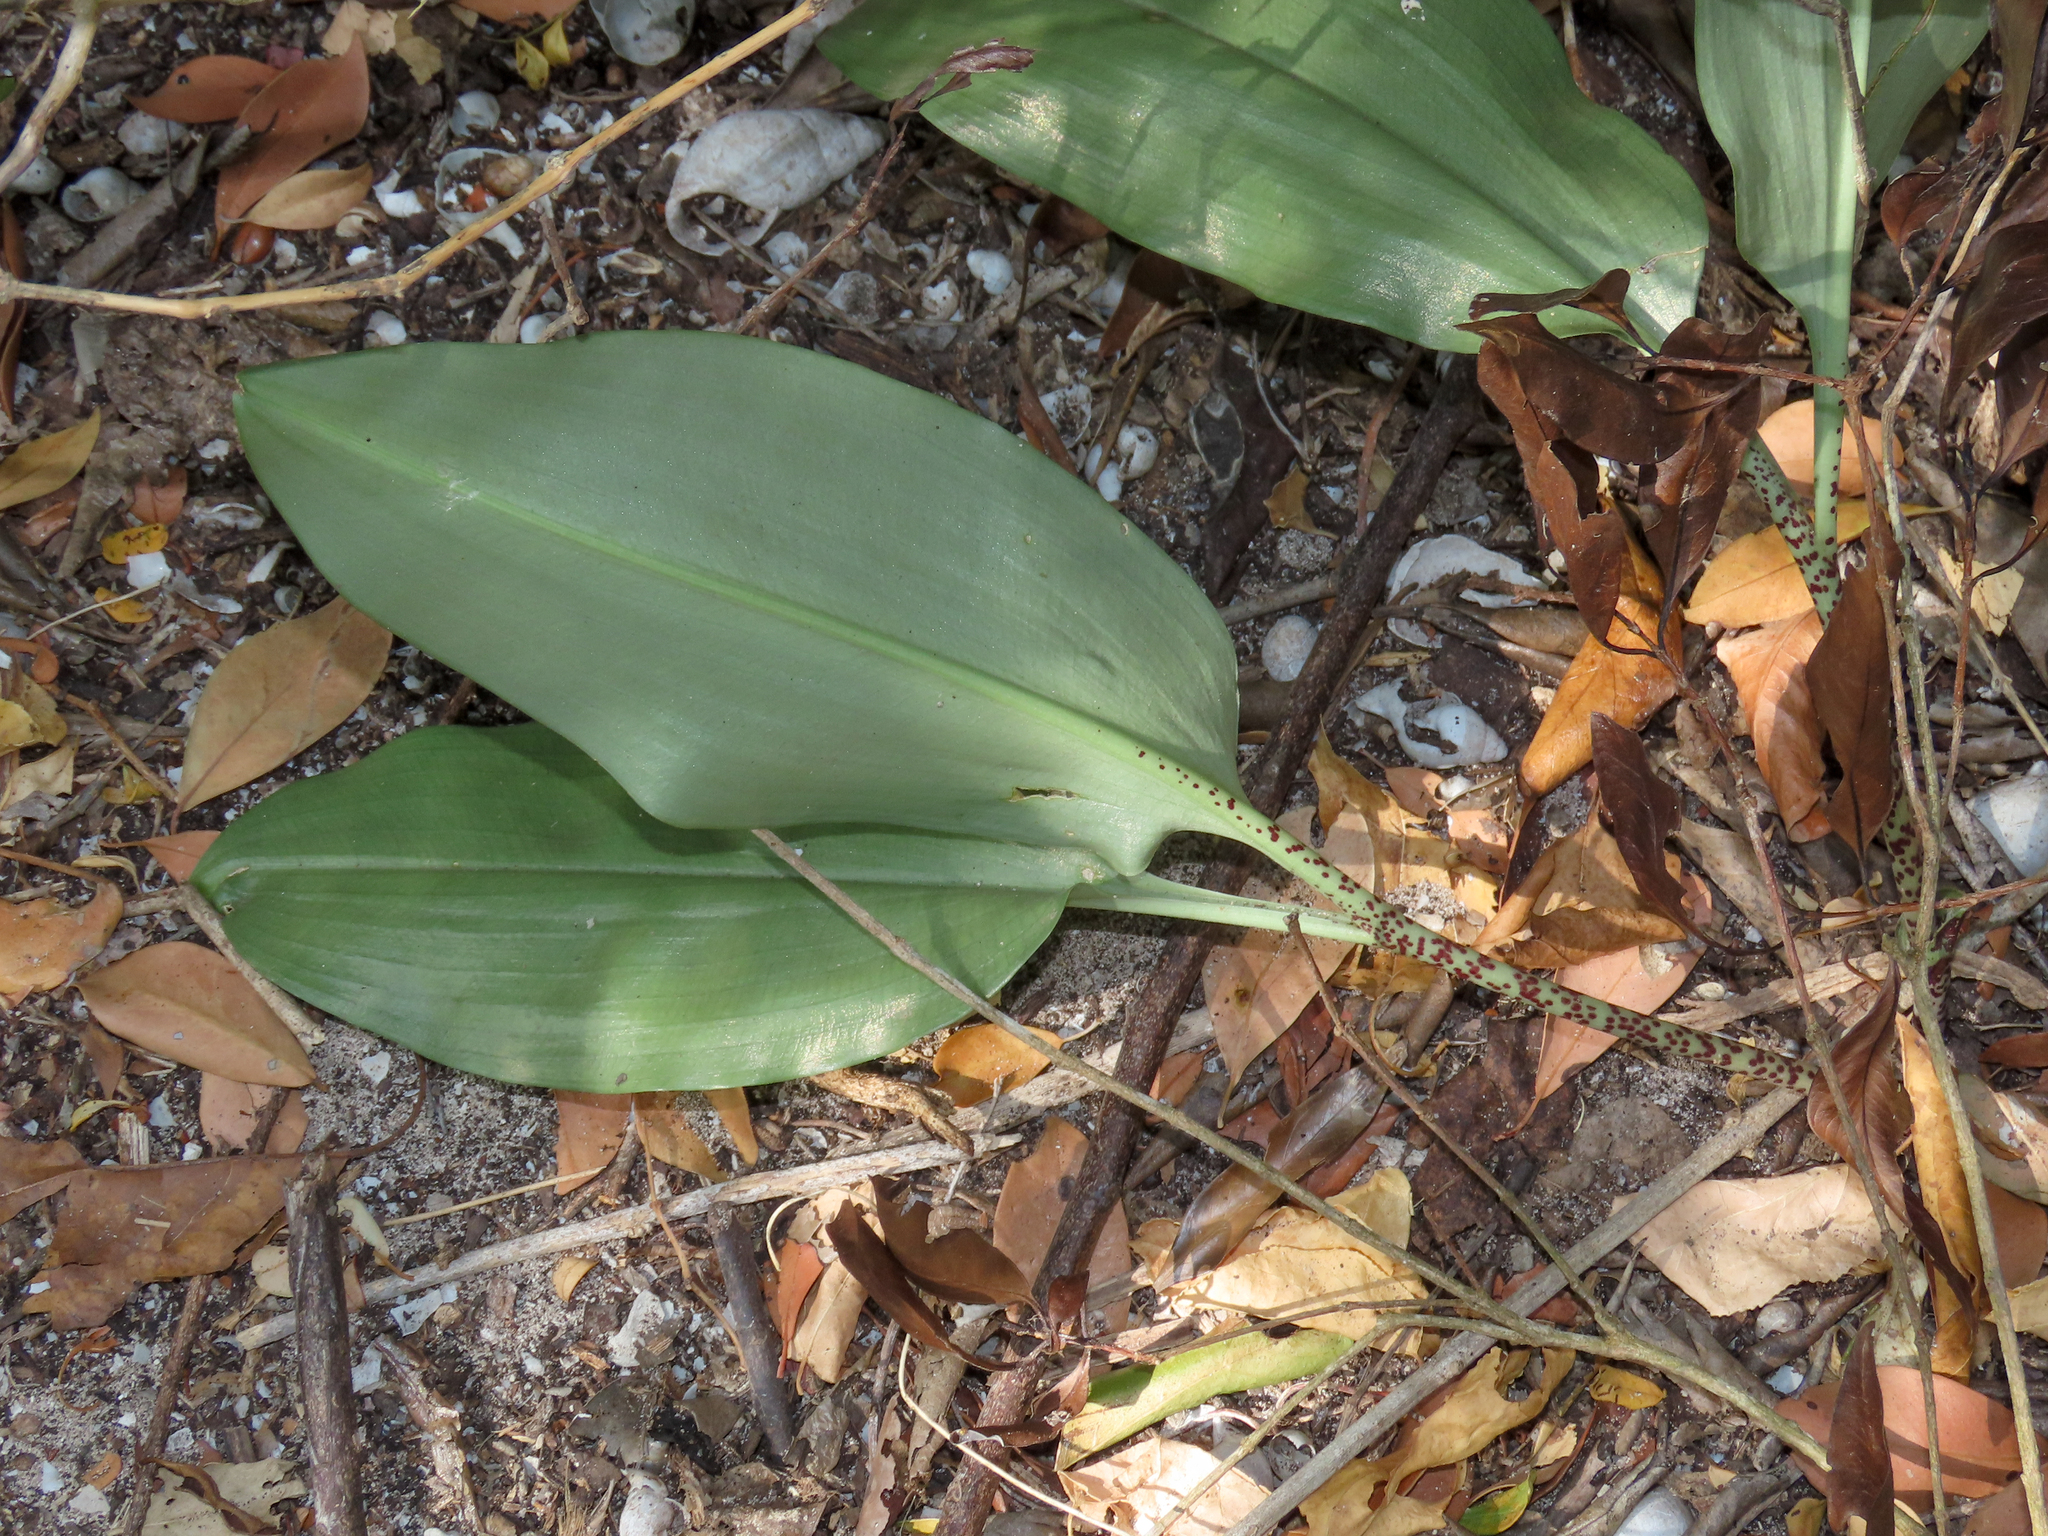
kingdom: Plantae
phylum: Tracheophyta
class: Liliopsida
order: Asparagales
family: Amaryllidaceae
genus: Scadoxus
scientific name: Scadoxus multiflorus
